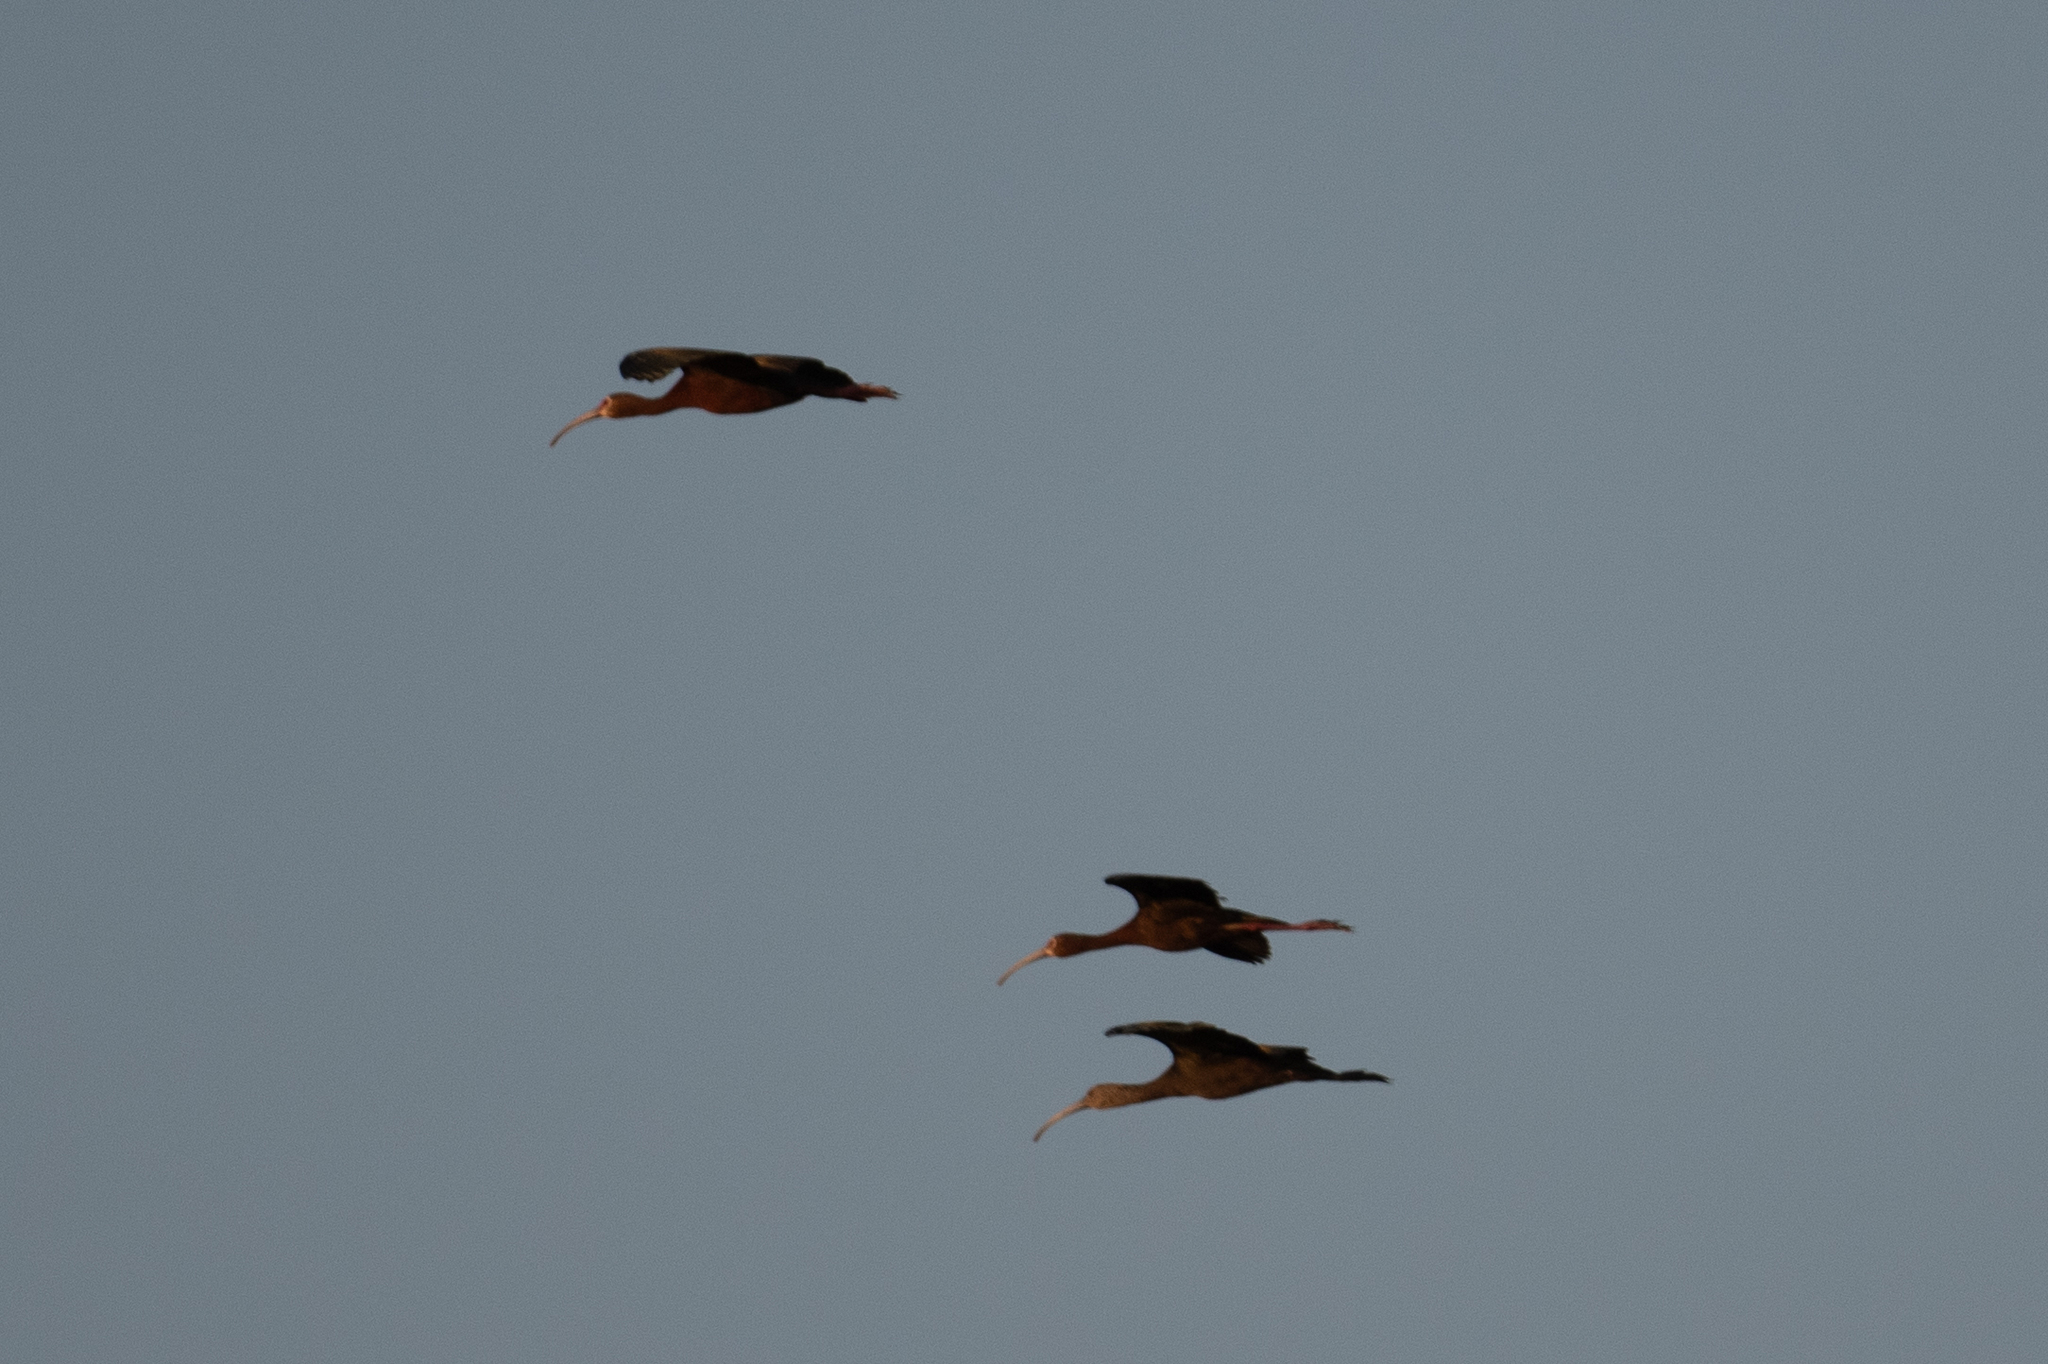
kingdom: Animalia
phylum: Chordata
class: Aves
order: Pelecaniformes
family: Threskiornithidae
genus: Plegadis
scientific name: Plegadis chihi
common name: White-faced ibis
